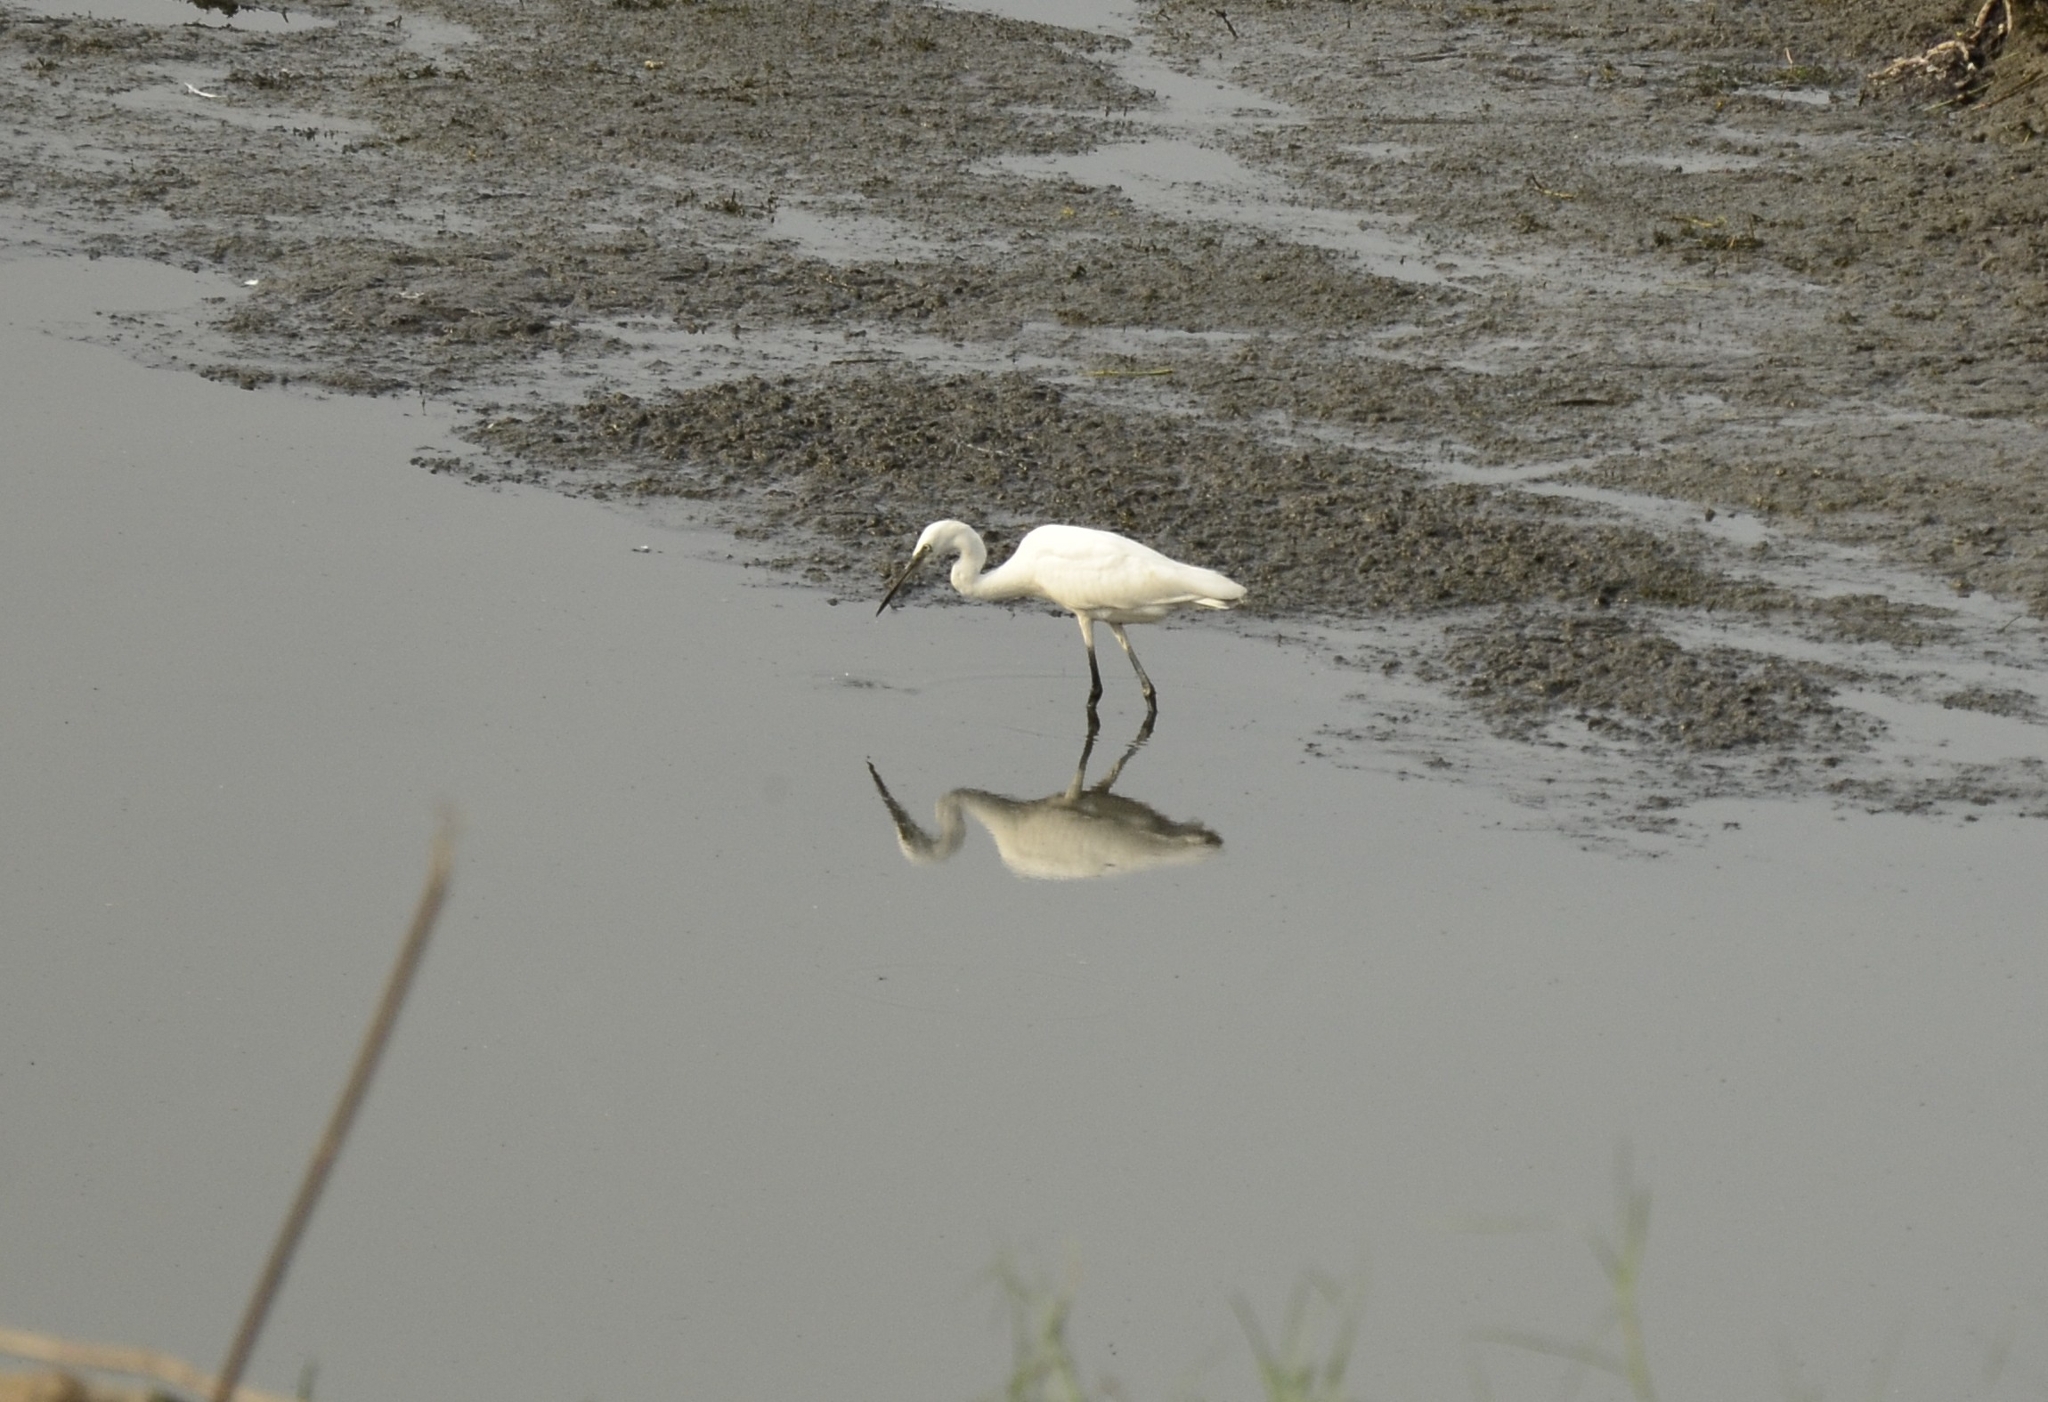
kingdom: Animalia
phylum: Chordata
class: Aves
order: Pelecaniformes
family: Ardeidae
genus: Egretta
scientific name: Egretta garzetta
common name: Little egret
